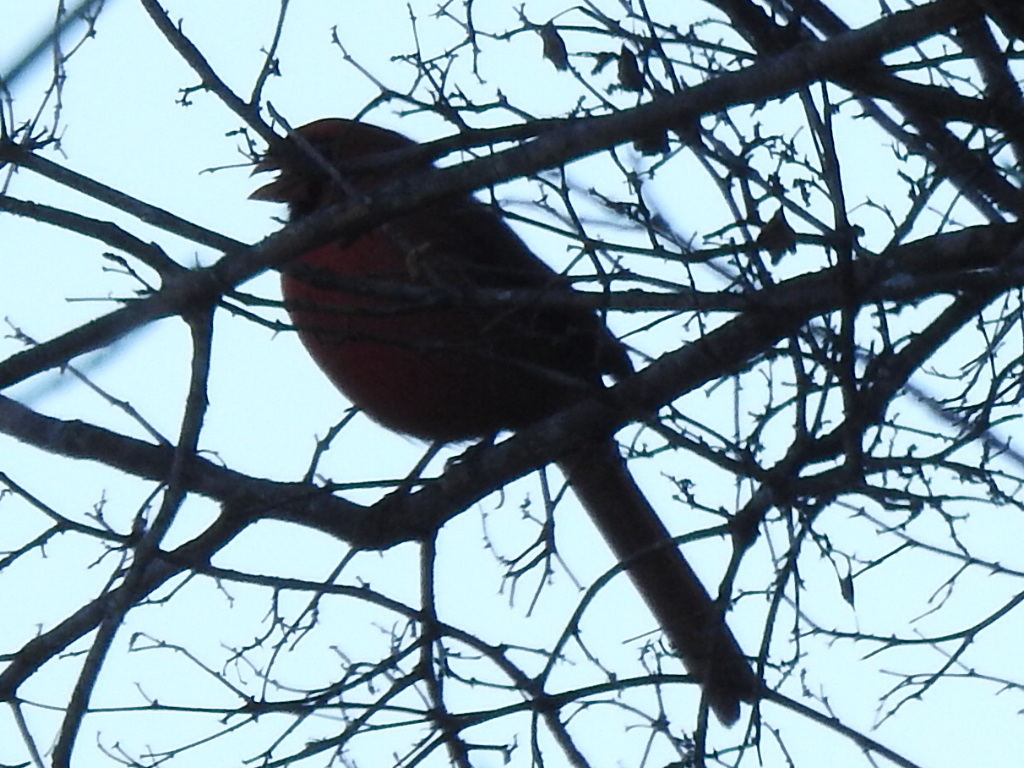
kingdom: Animalia
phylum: Chordata
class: Aves
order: Passeriformes
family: Cardinalidae
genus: Cardinalis
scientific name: Cardinalis cardinalis
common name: Northern cardinal
